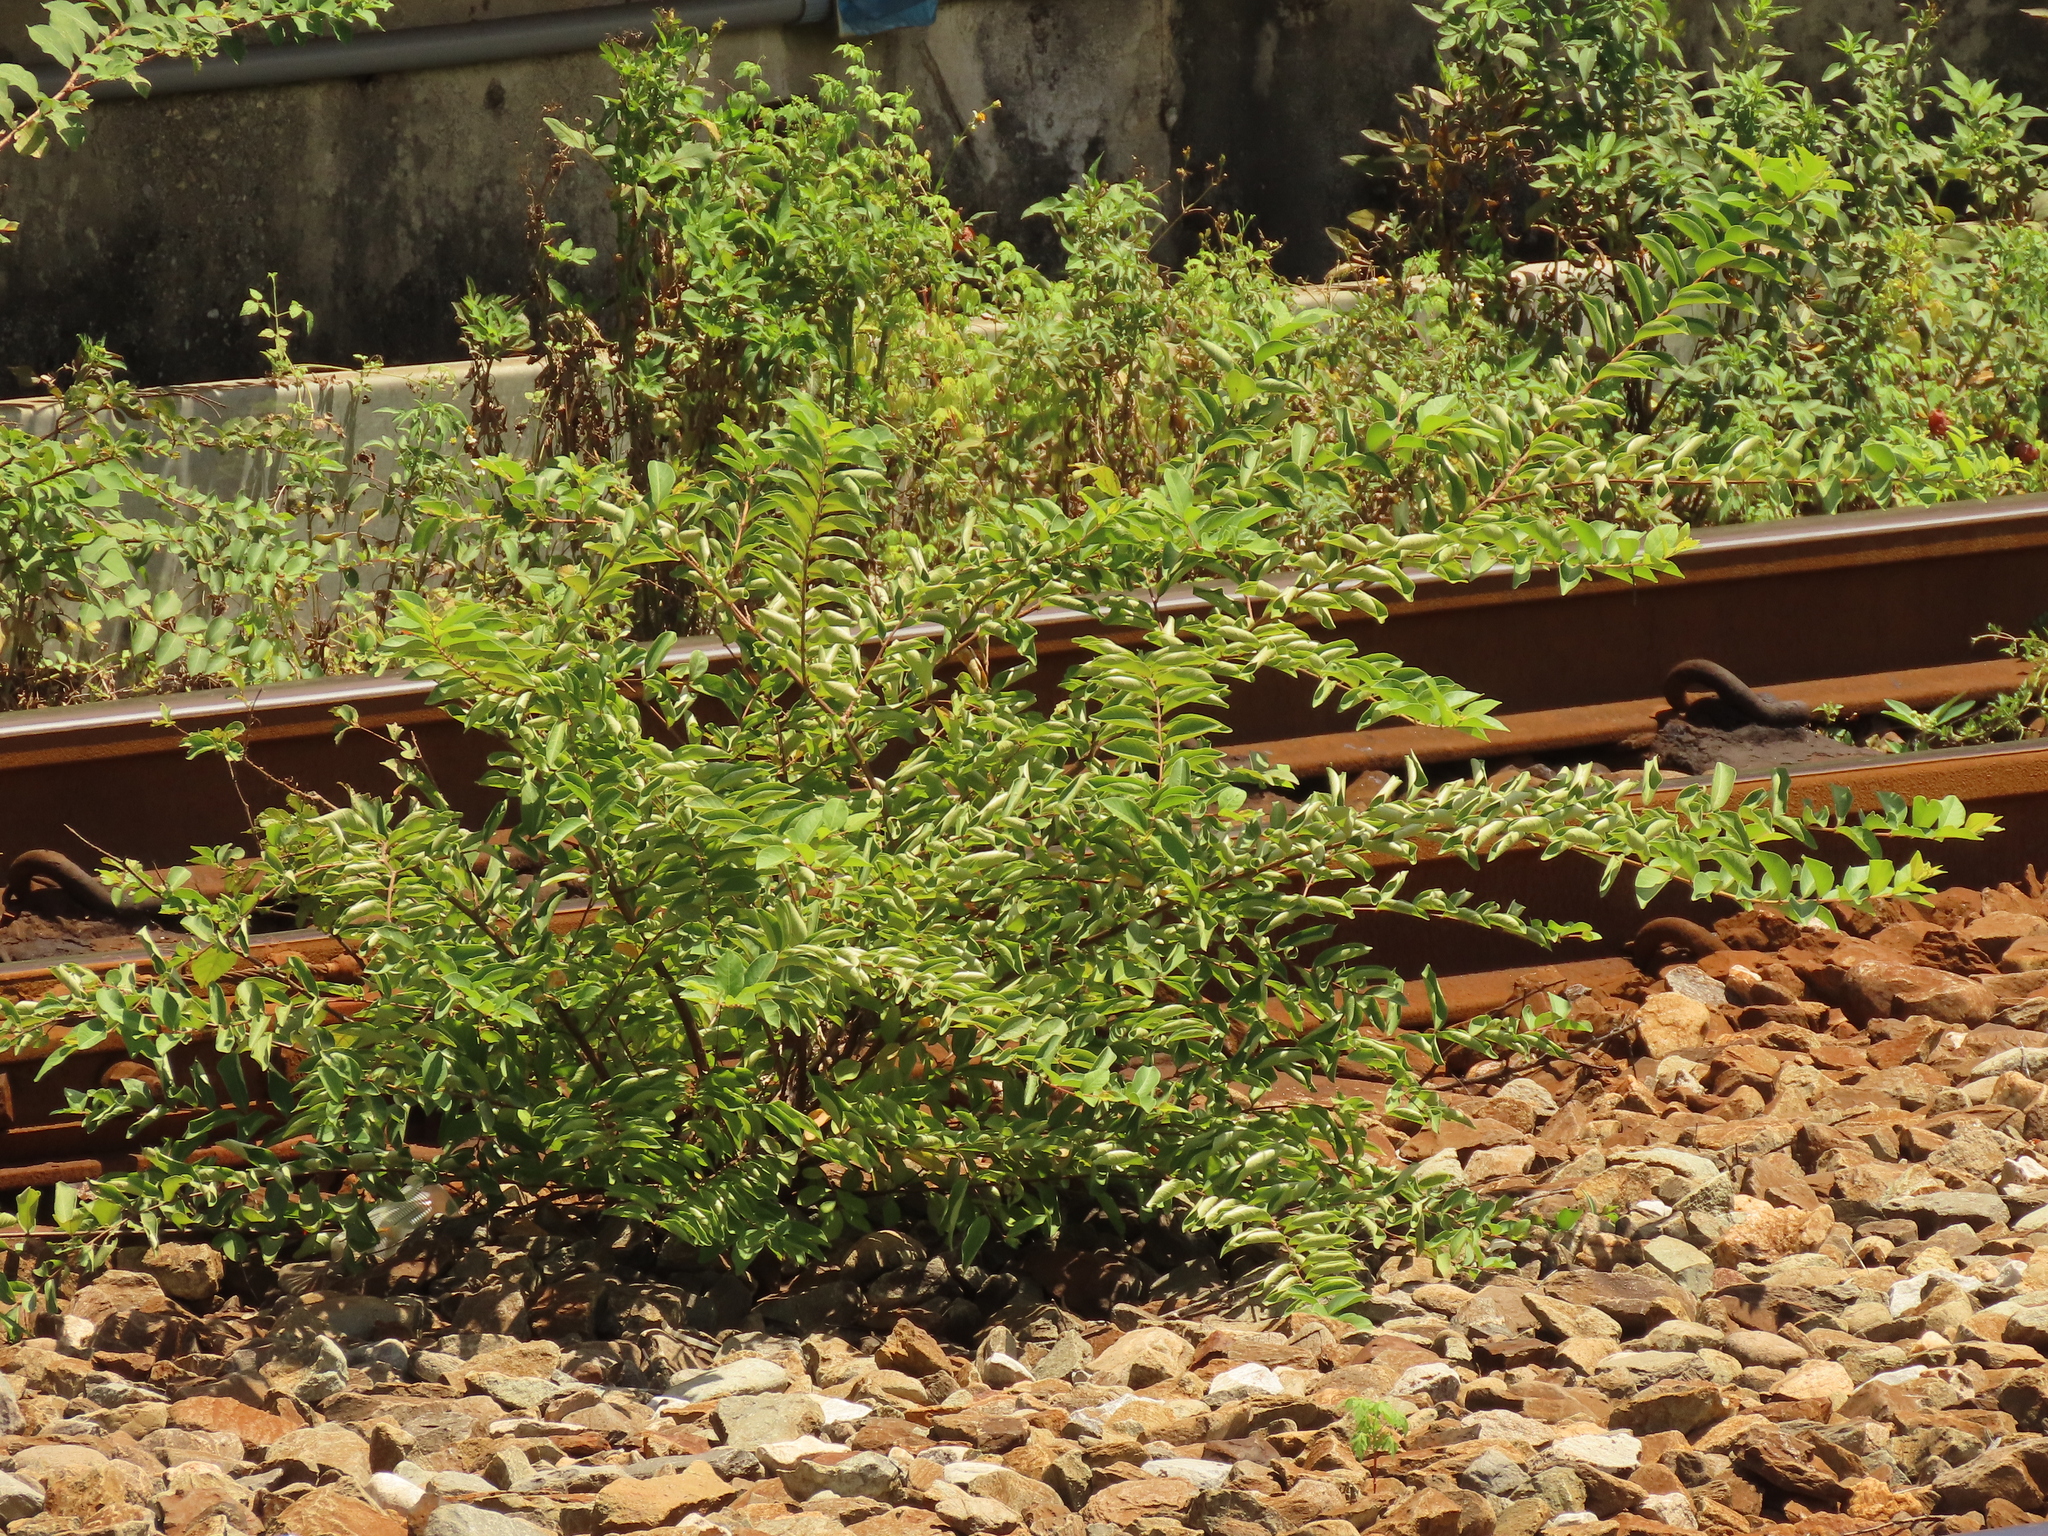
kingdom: Plantae
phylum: Tracheophyta
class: Magnoliopsida
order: Myrtales
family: Lythraceae
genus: Lagerstroemia
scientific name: Lagerstroemia subcostata
